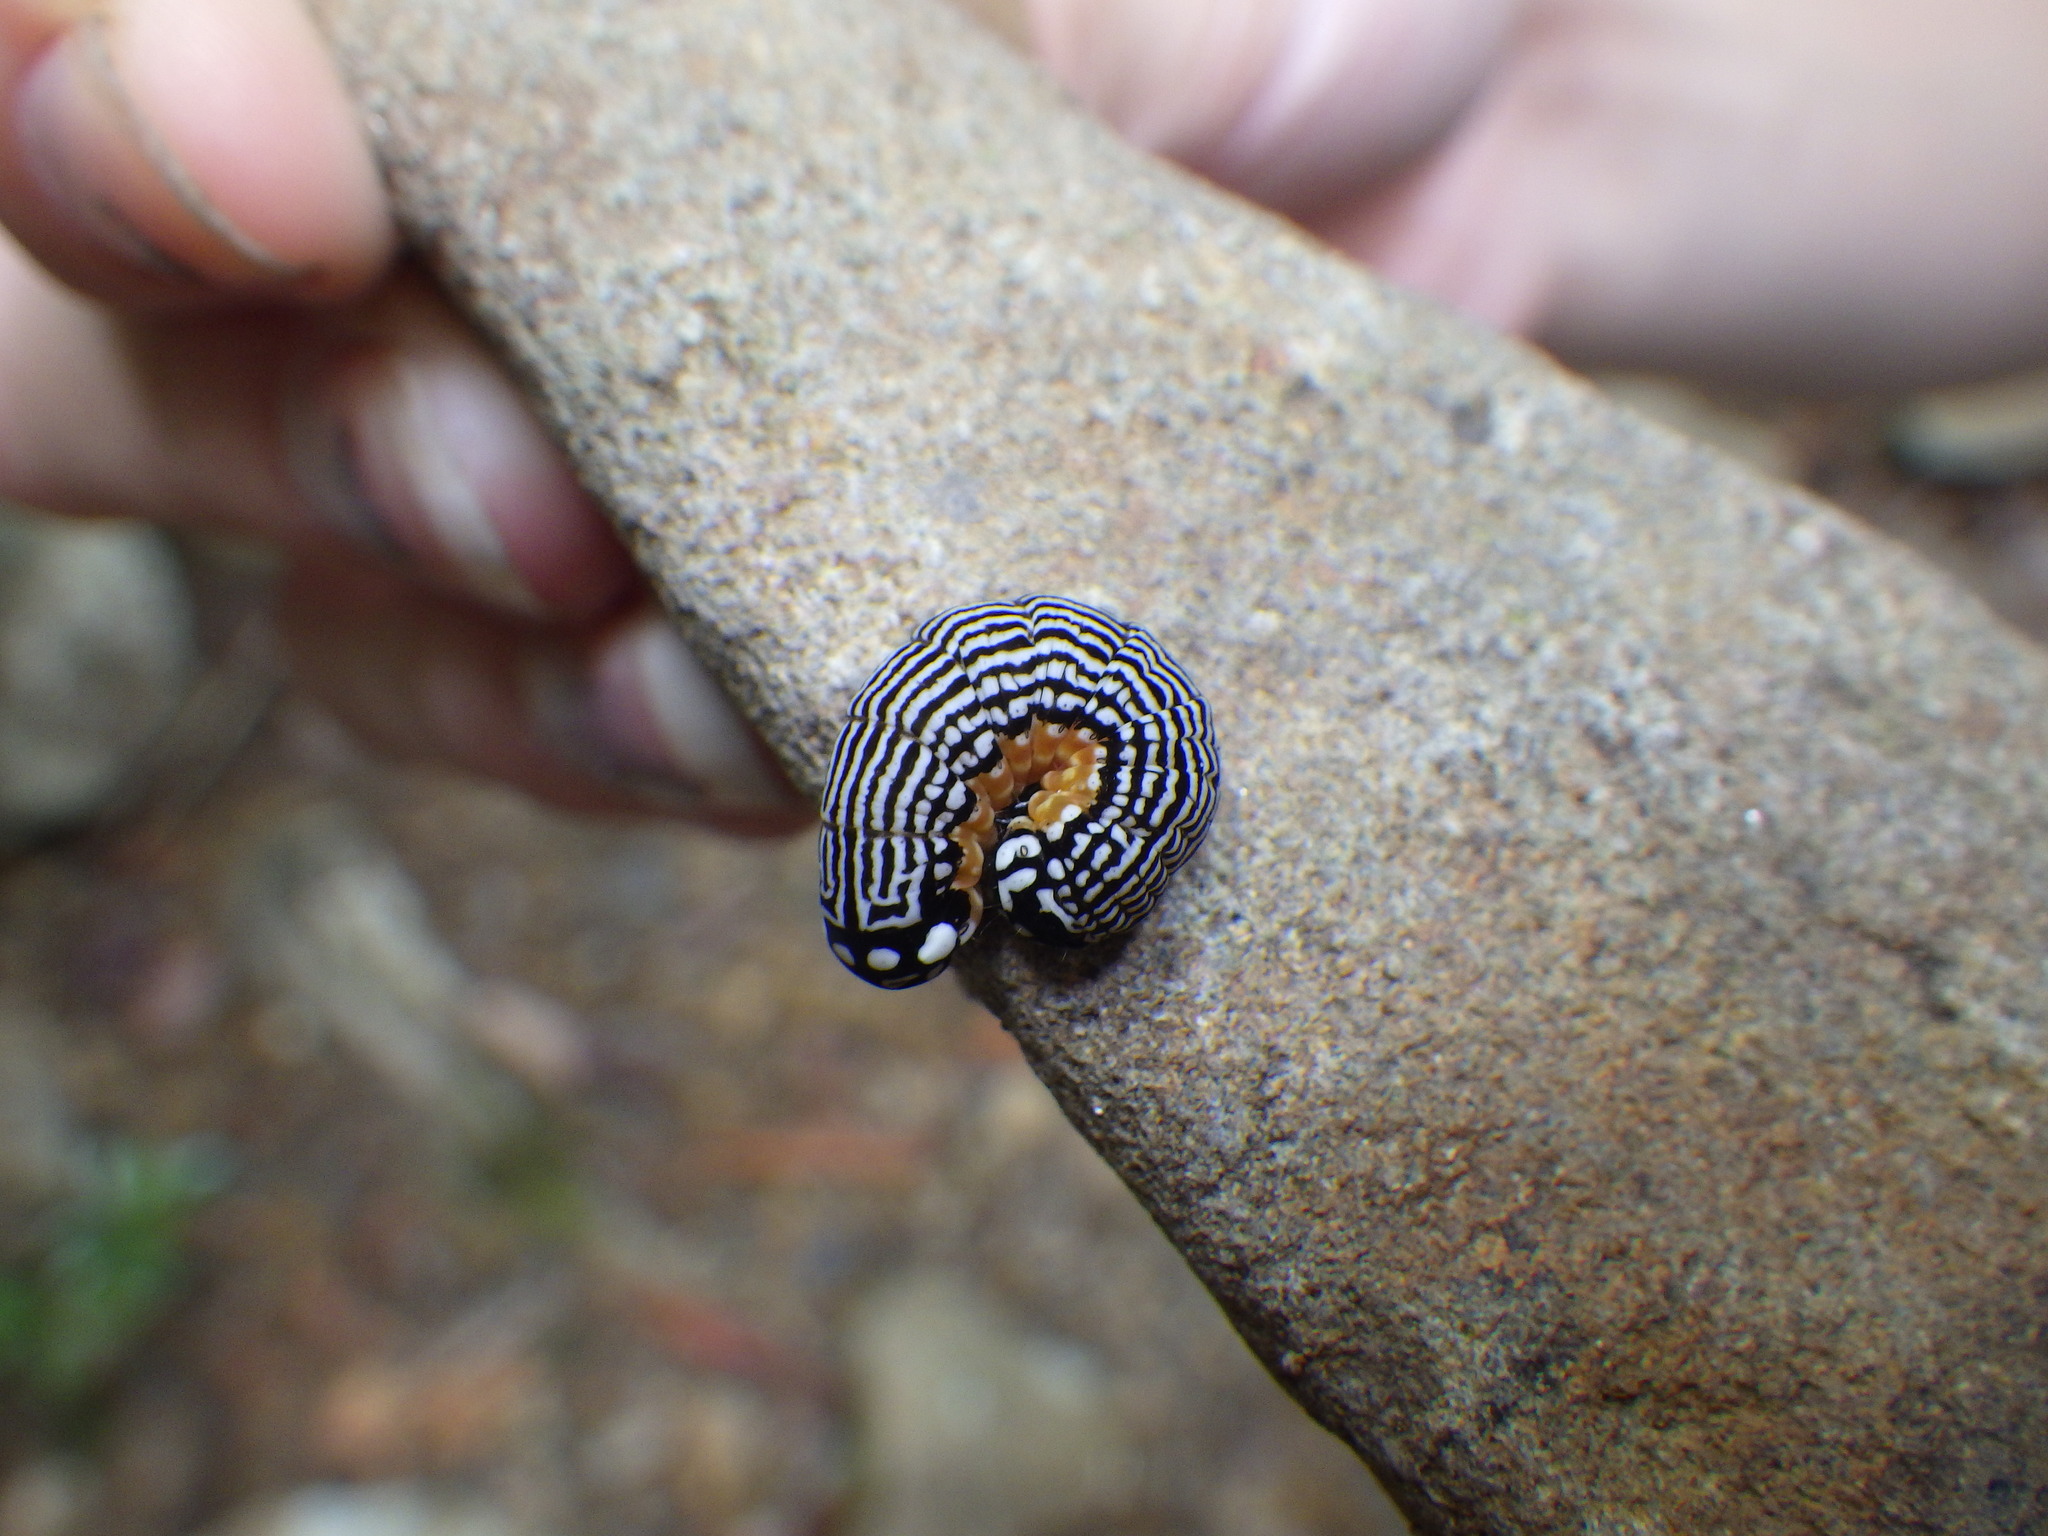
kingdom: Animalia
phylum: Arthropoda
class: Insecta
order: Lepidoptera
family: Noctuidae
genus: Phosphila
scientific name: Phosphila turbulenta
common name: Turbulent phosphila moth
